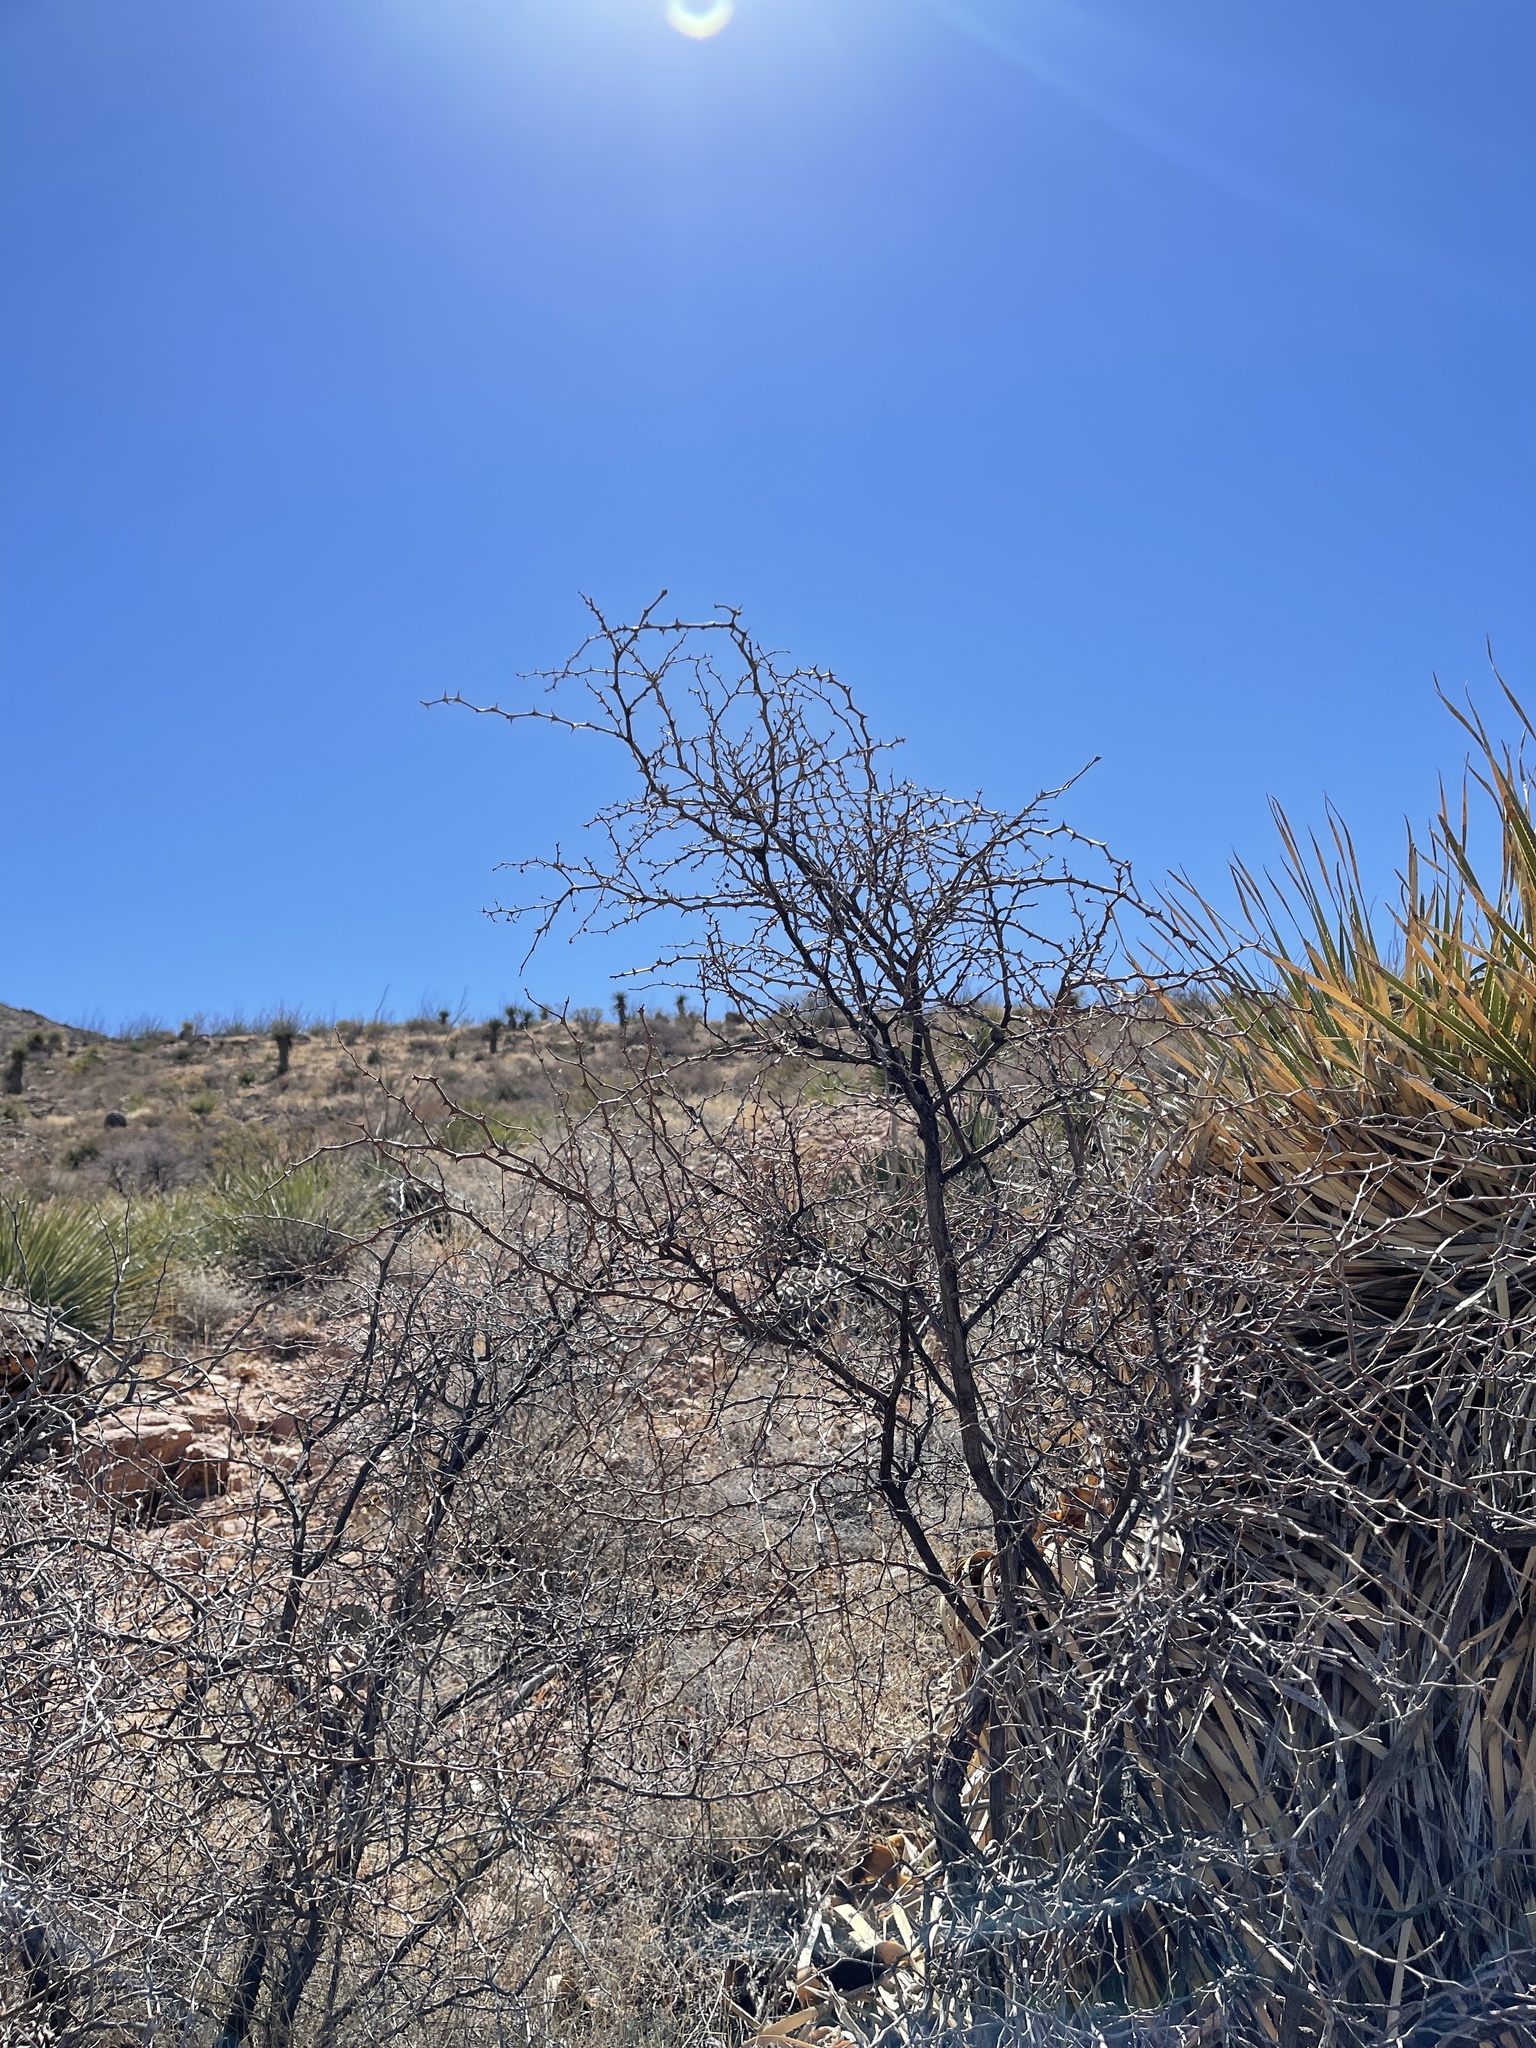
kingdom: Plantae
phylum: Tracheophyta
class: Magnoliopsida
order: Fabales
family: Fabaceae
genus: Mimosa
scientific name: Mimosa aculeaticarpa
